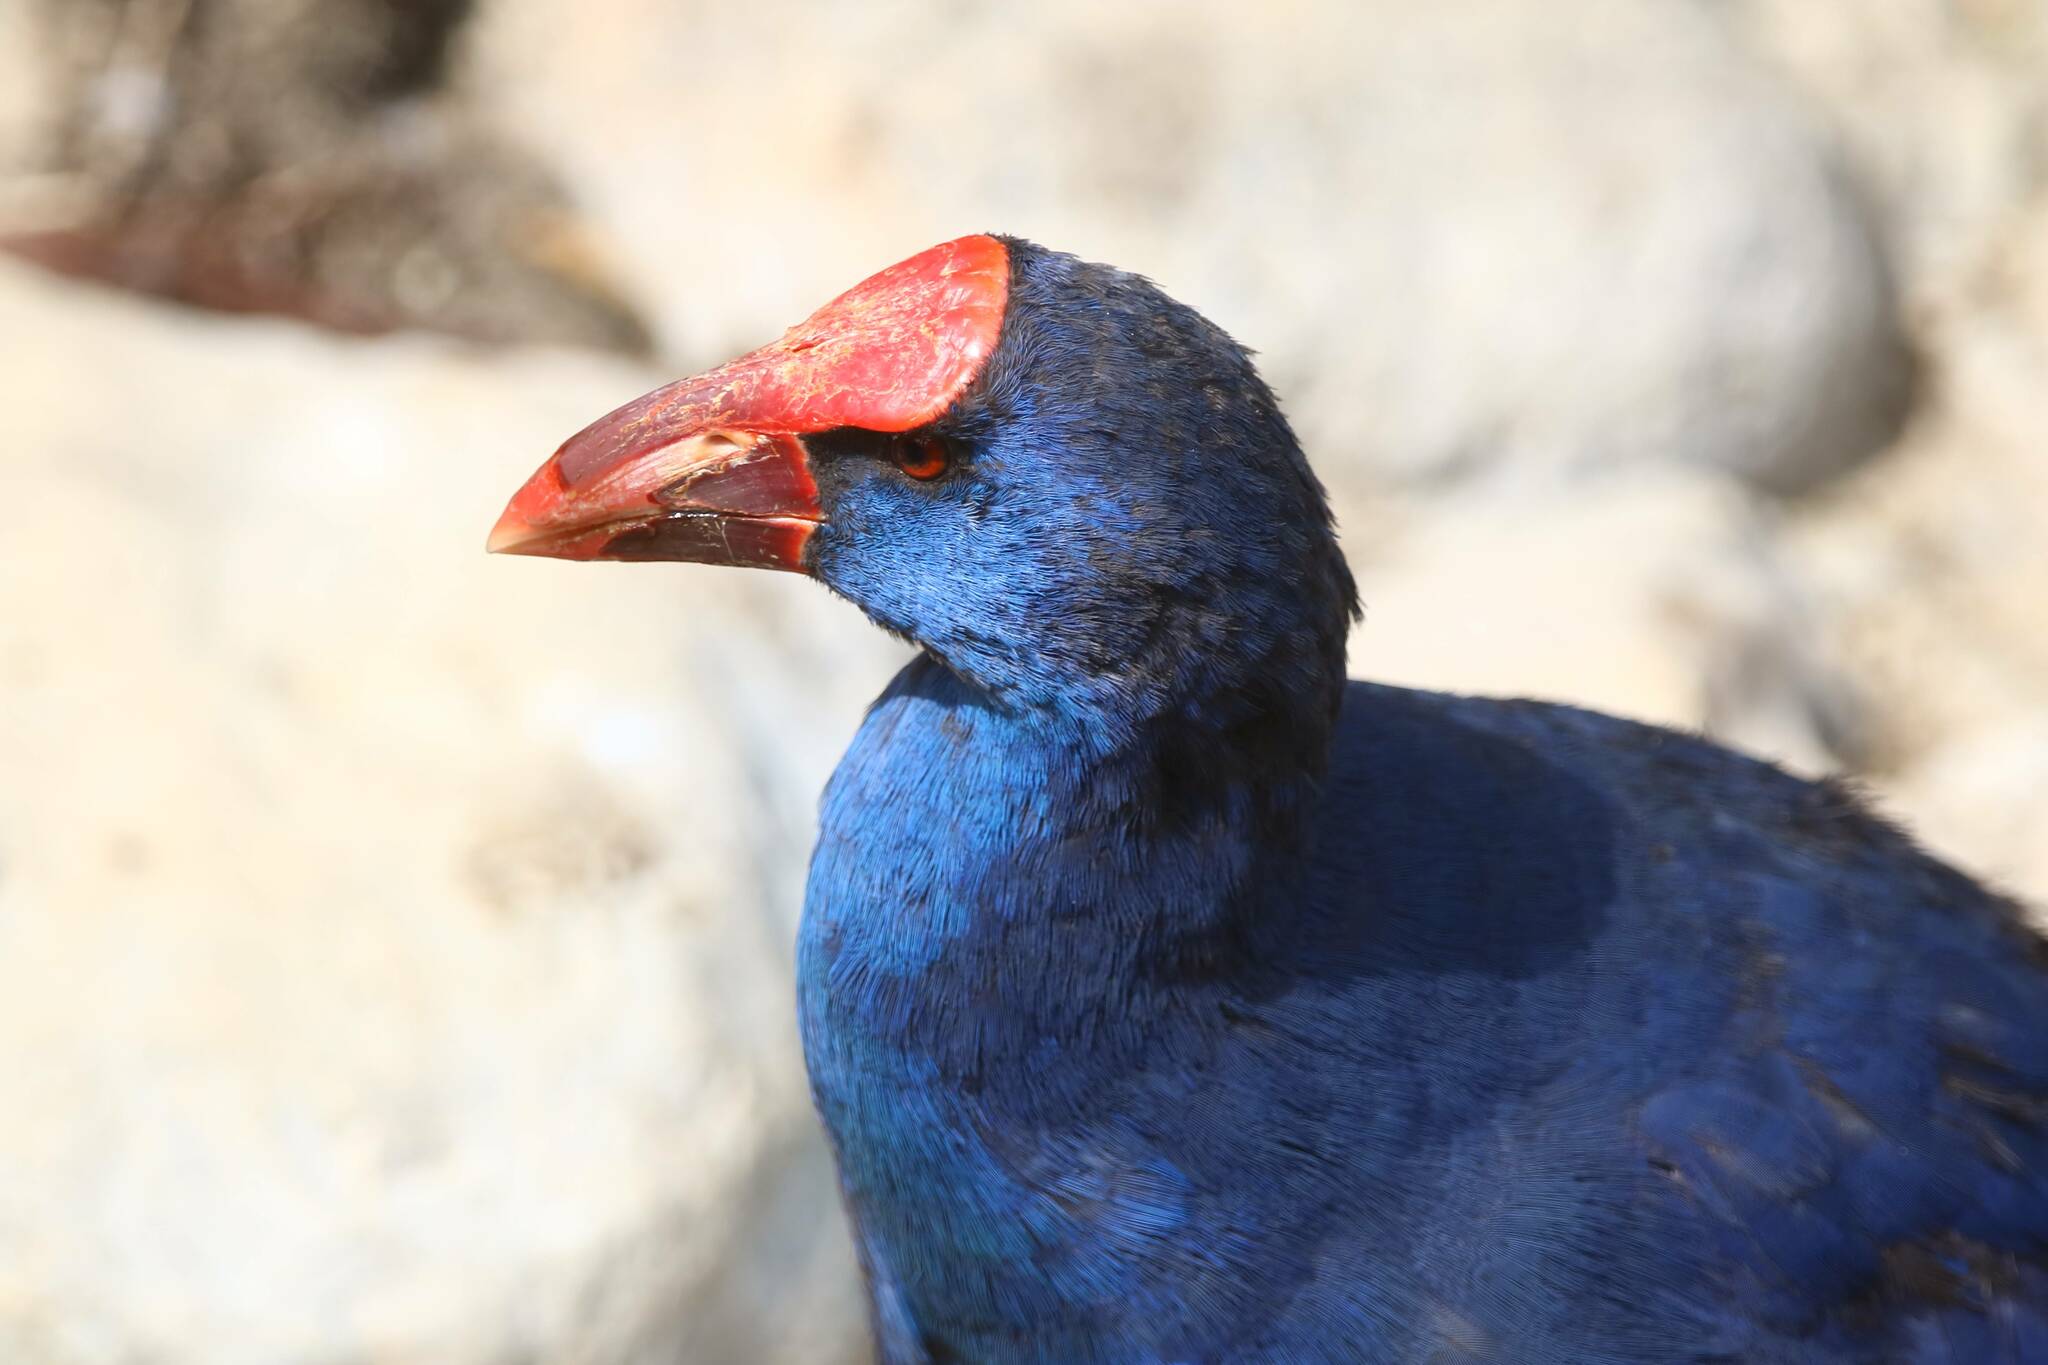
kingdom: Animalia
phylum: Chordata
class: Aves
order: Gruiformes
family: Rallidae
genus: Porphyrio
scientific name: Porphyrio porphyrio
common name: Purple swamphen
